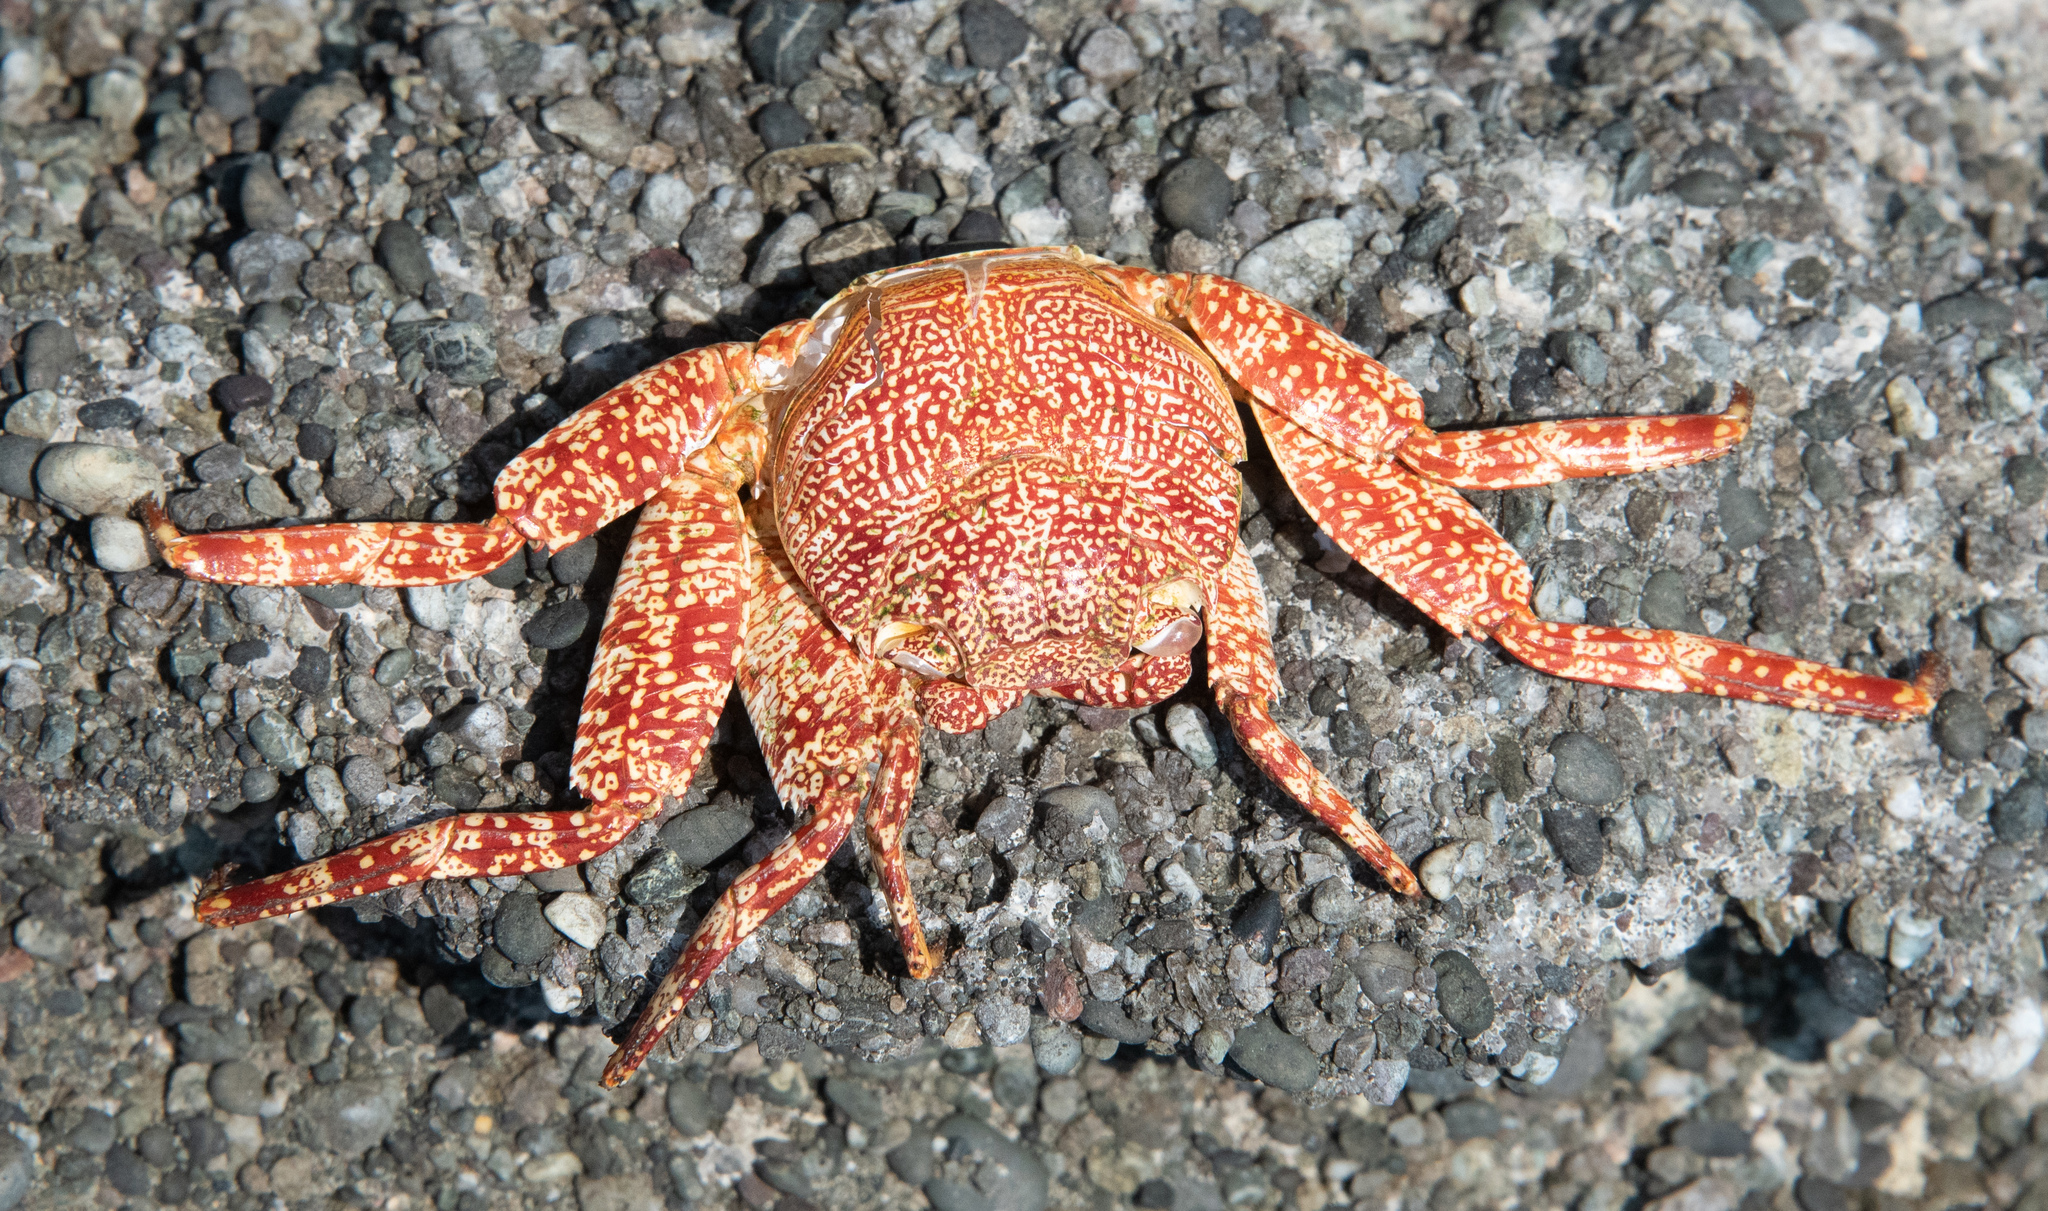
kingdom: Animalia
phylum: Arthropoda
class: Malacostraca
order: Decapoda
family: Grapsidae
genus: Grapsus
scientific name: Grapsus grapsus
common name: Sally lightfoot
